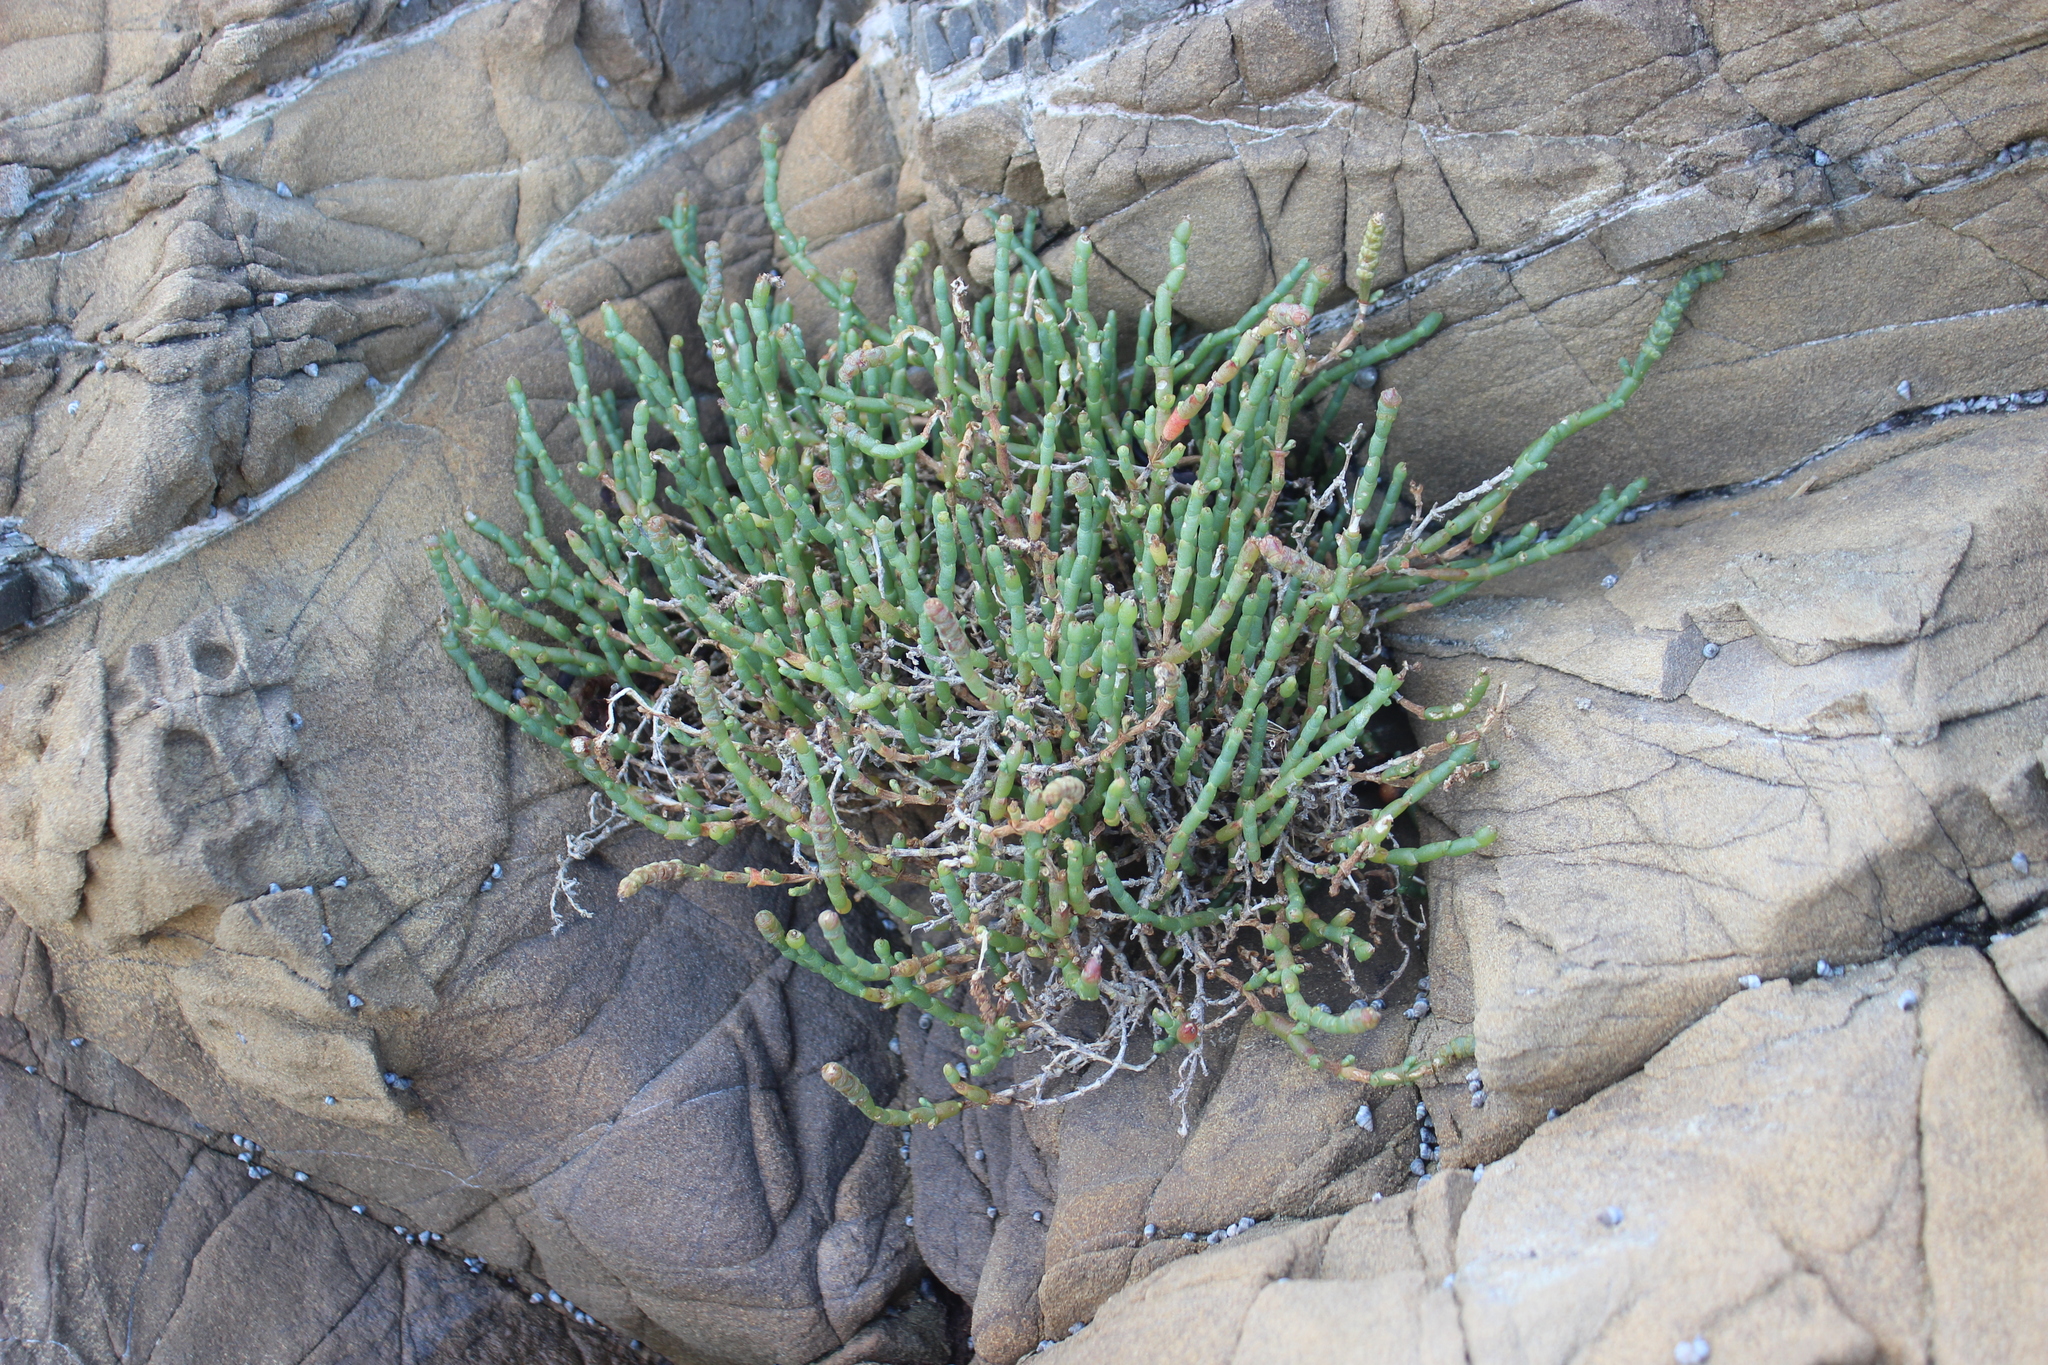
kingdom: Plantae
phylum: Tracheophyta
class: Magnoliopsida
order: Caryophyllales
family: Amaranthaceae
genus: Salicornia
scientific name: Salicornia quinqueflora
